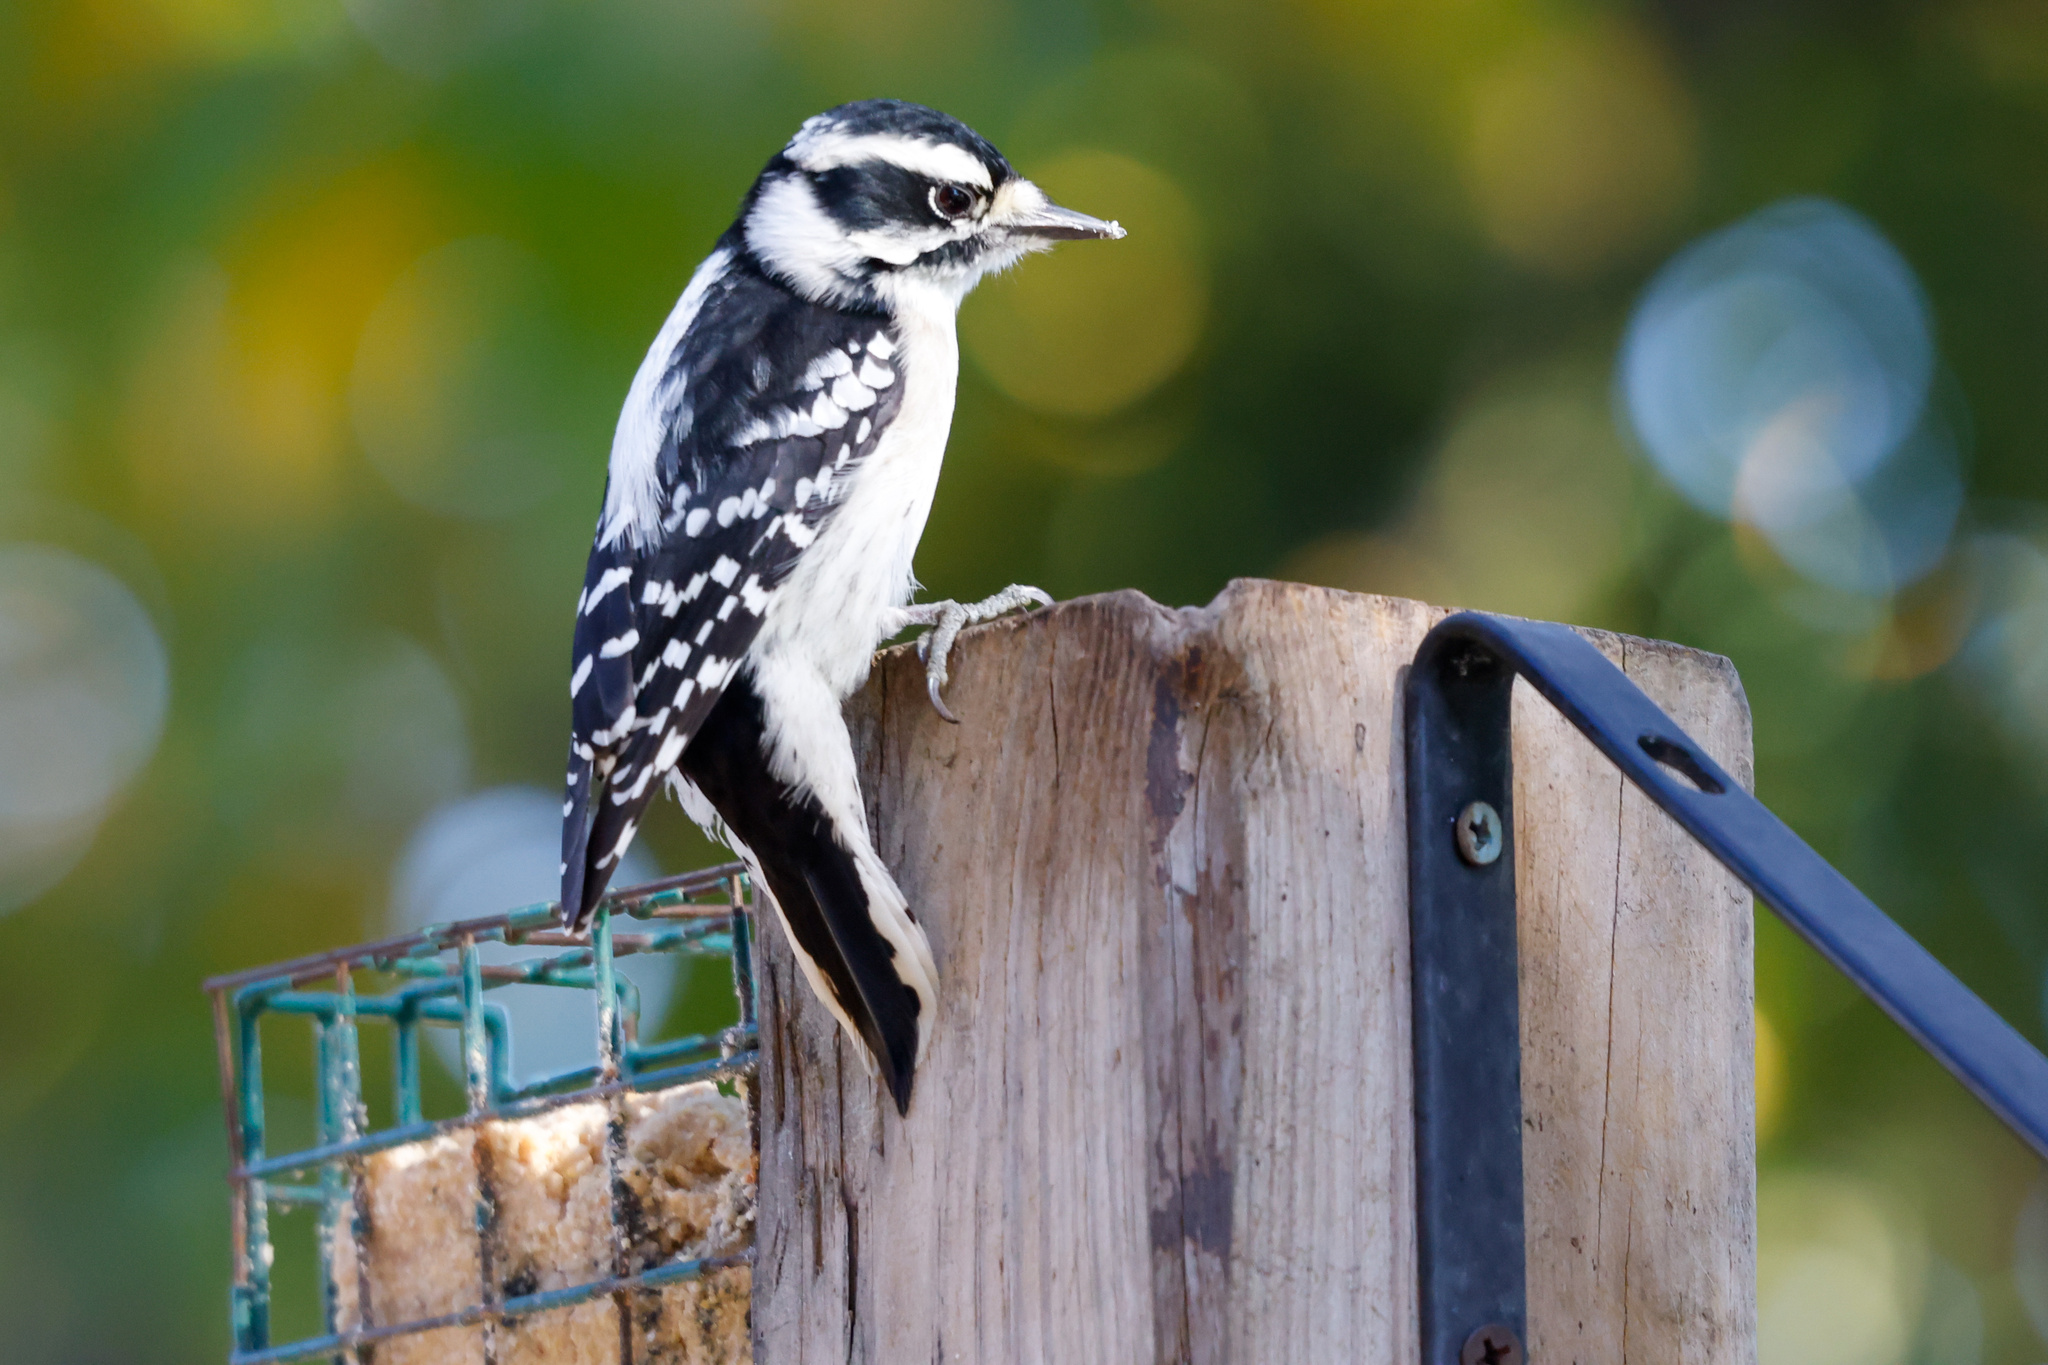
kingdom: Animalia
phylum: Chordata
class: Aves
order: Piciformes
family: Picidae
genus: Dryobates
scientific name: Dryobates pubescens
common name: Downy woodpecker
